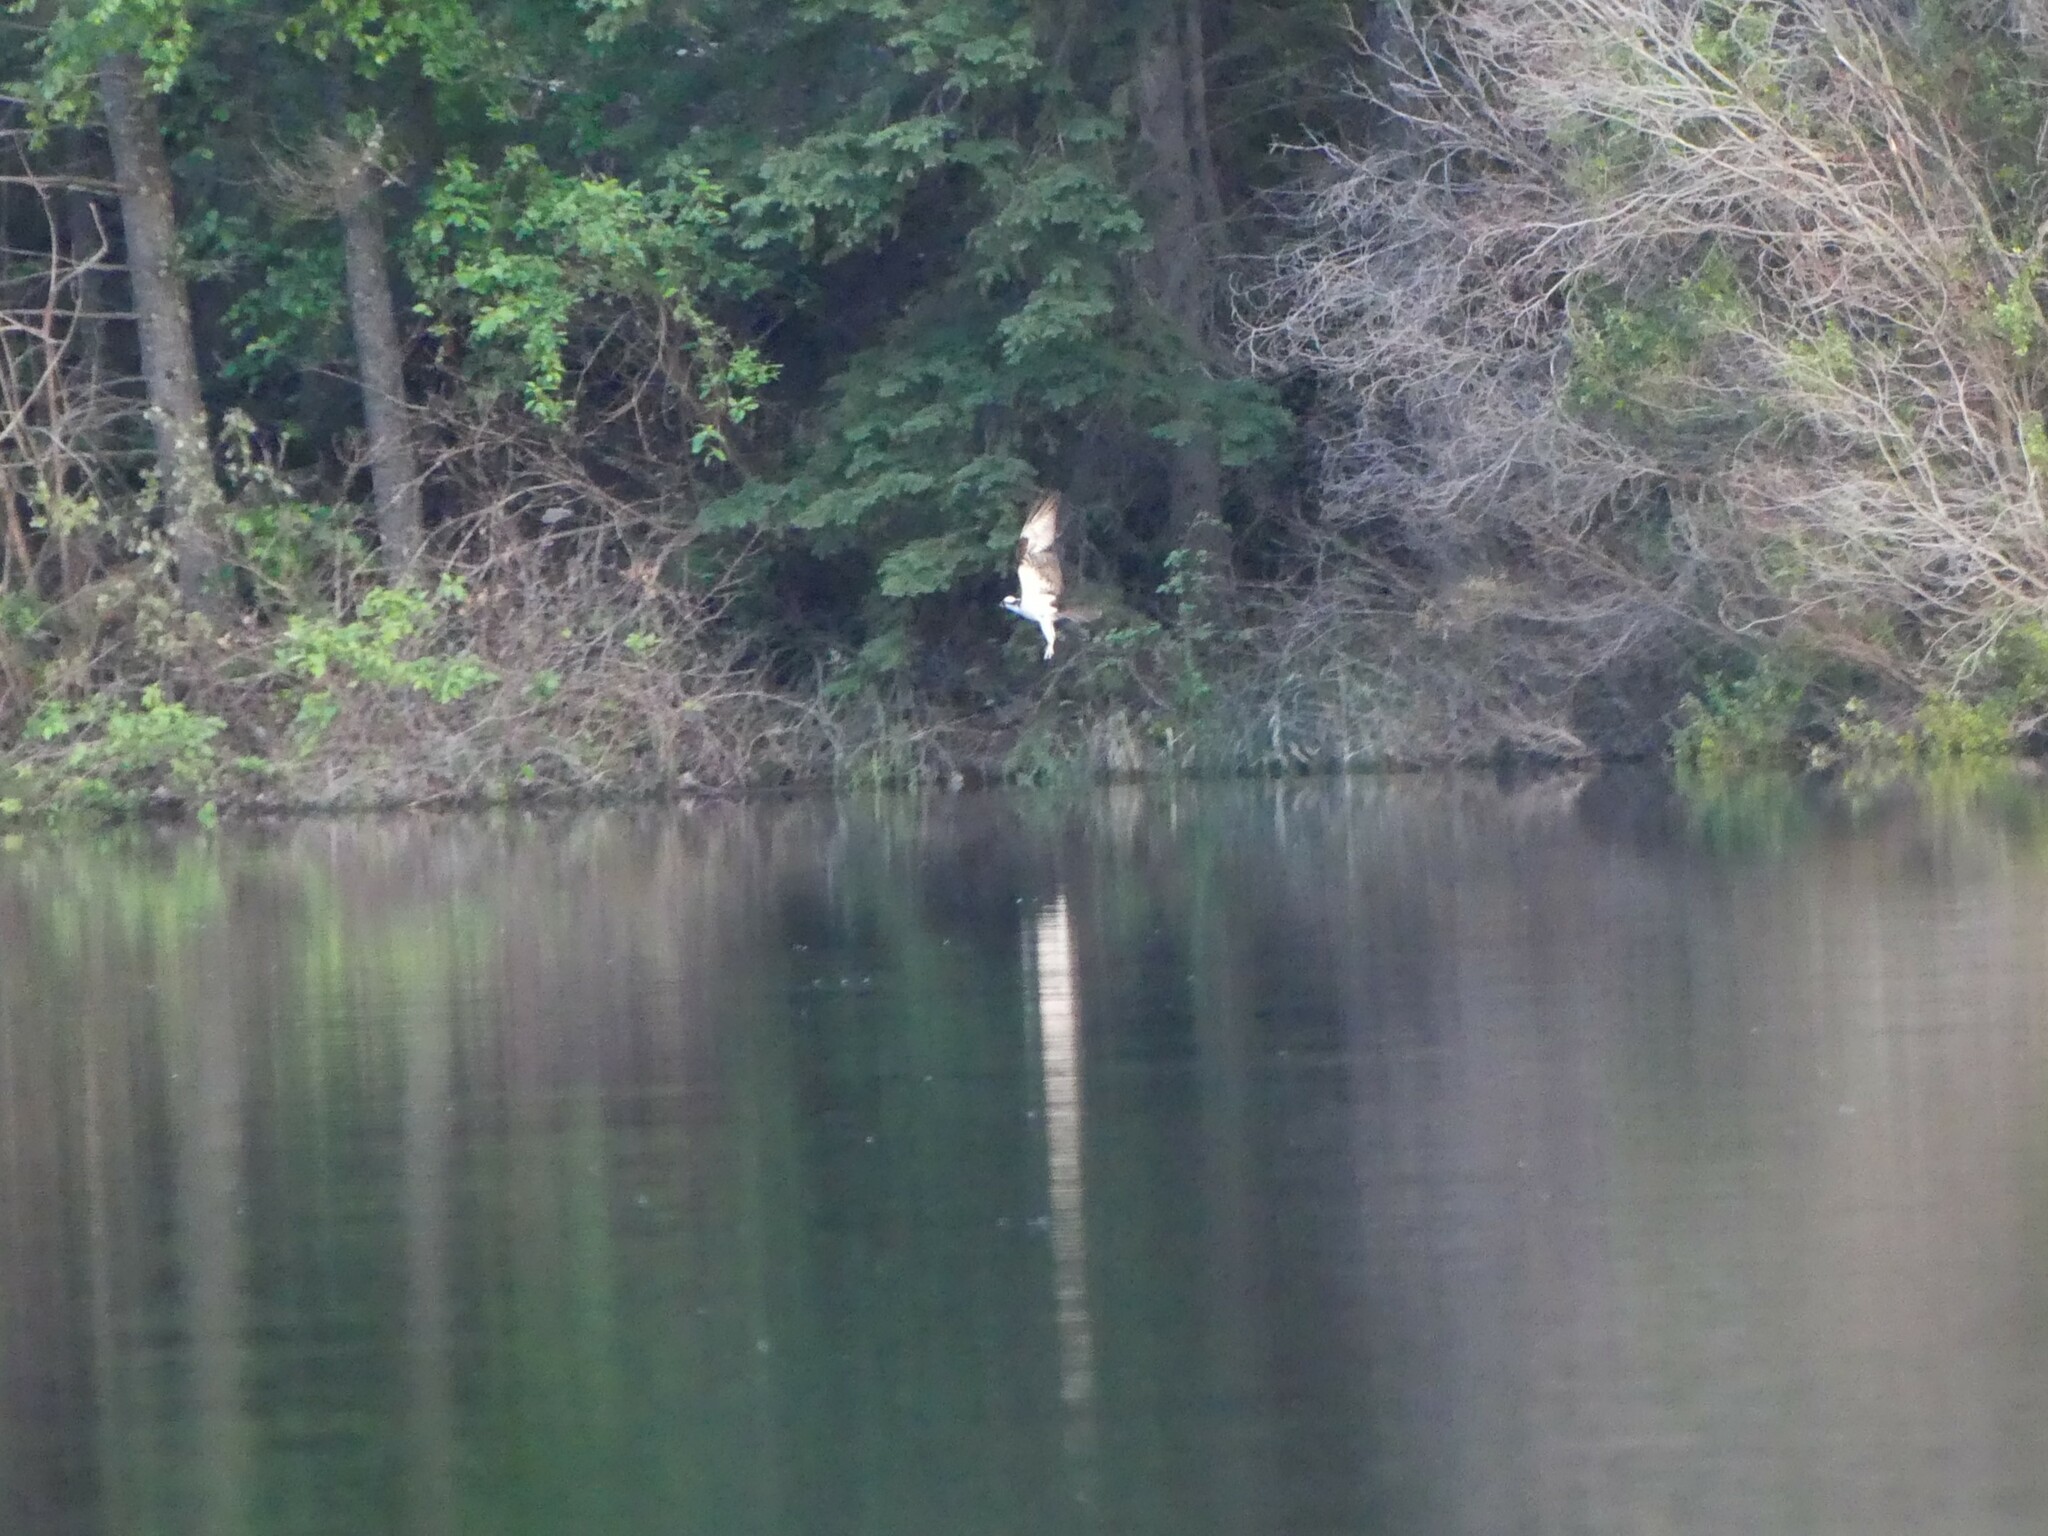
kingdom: Animalia
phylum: Chordata
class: Aves
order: Accipitriformes
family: Pandionidae
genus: Pandion
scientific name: Pandion haliaetus
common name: Osprey
